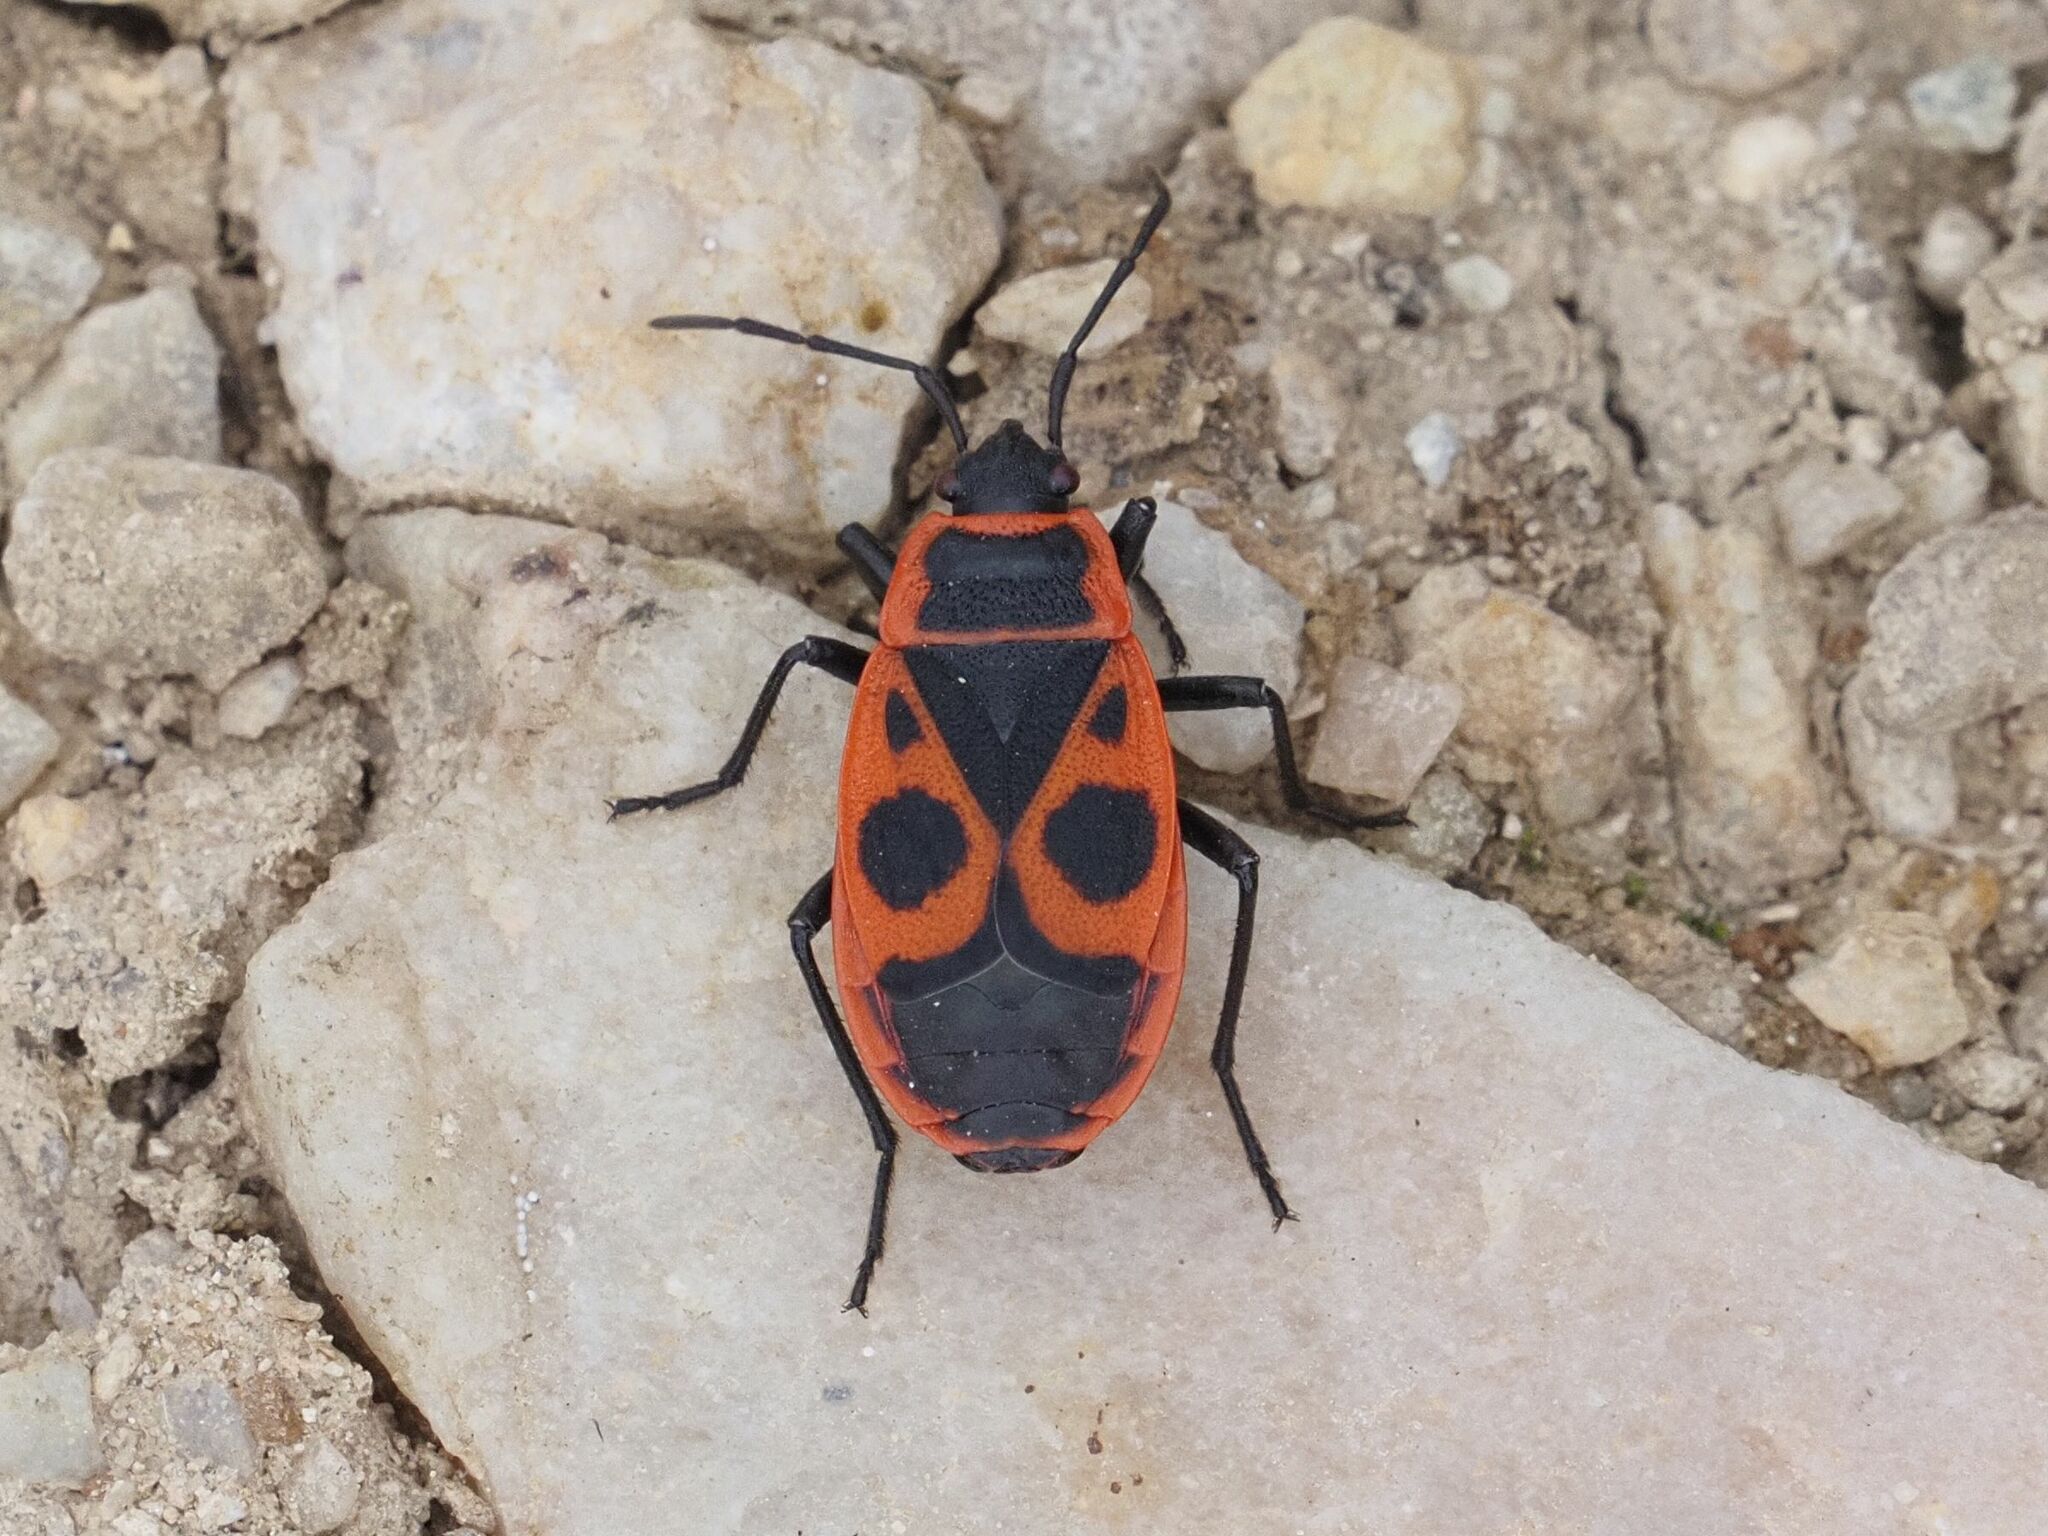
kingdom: Animalia
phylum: Arthropoda
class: Insecta
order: Hemiptera
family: Pyrrhocoridae
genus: Pyrrhocoris
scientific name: Pyrrhocoris apterus
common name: Firebug
